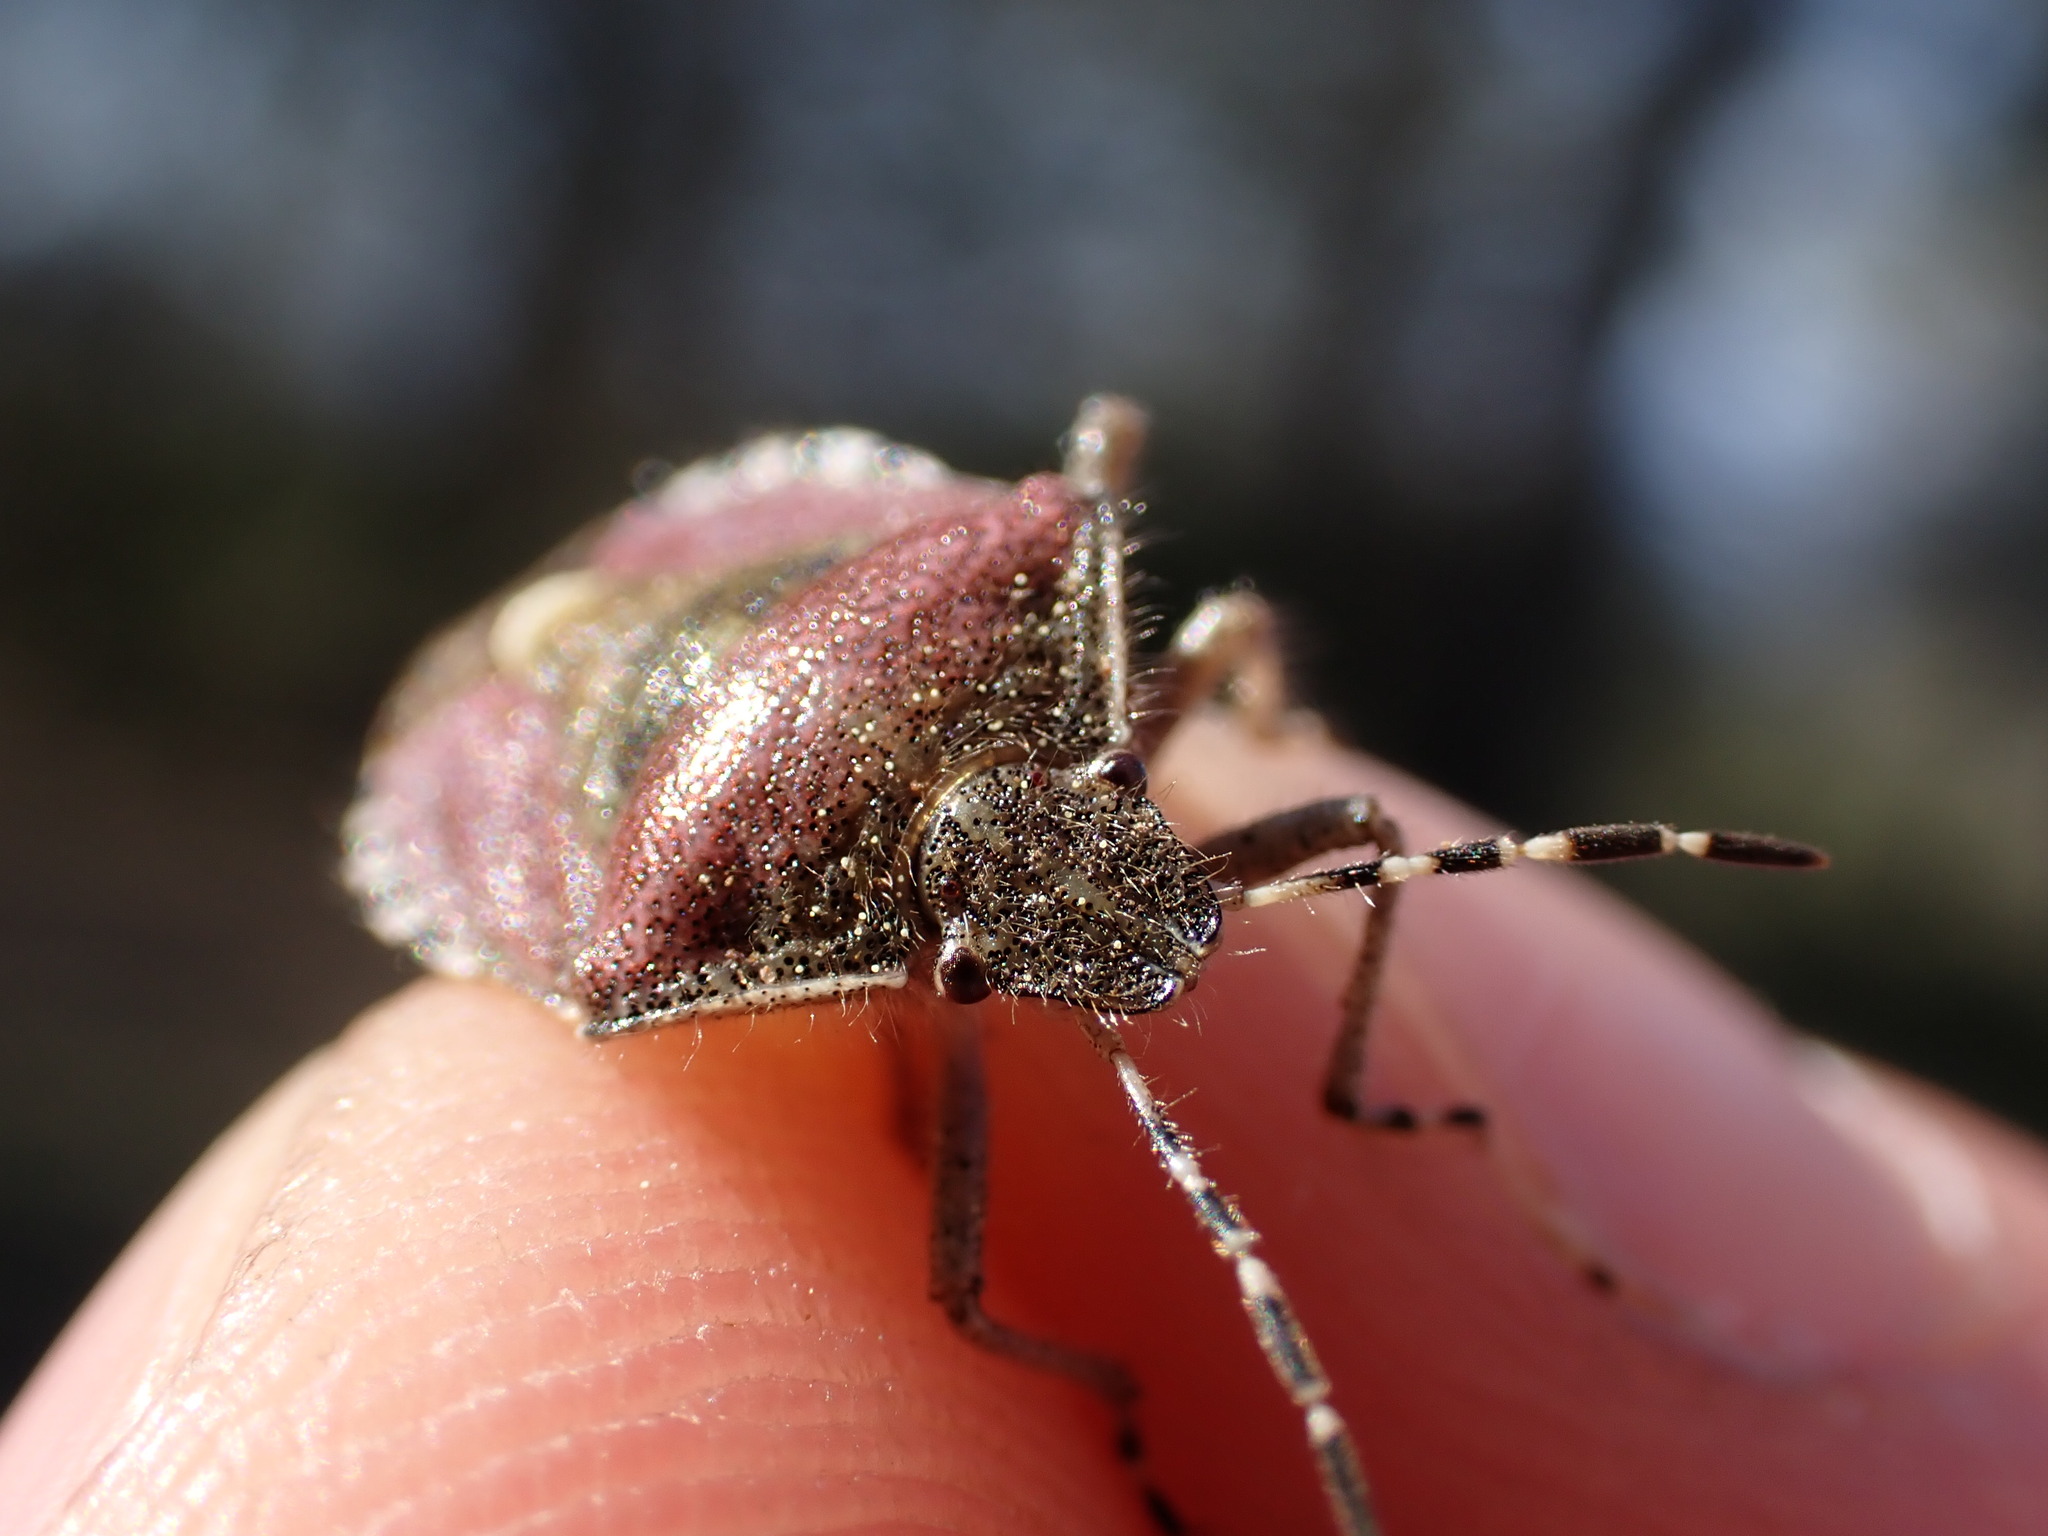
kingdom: Animalia
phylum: Arthropoda
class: Insecta
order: Hemiptera
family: Pentatomidae
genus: Dolycoris
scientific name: Dolycoris baccarum
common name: Sloe bug
